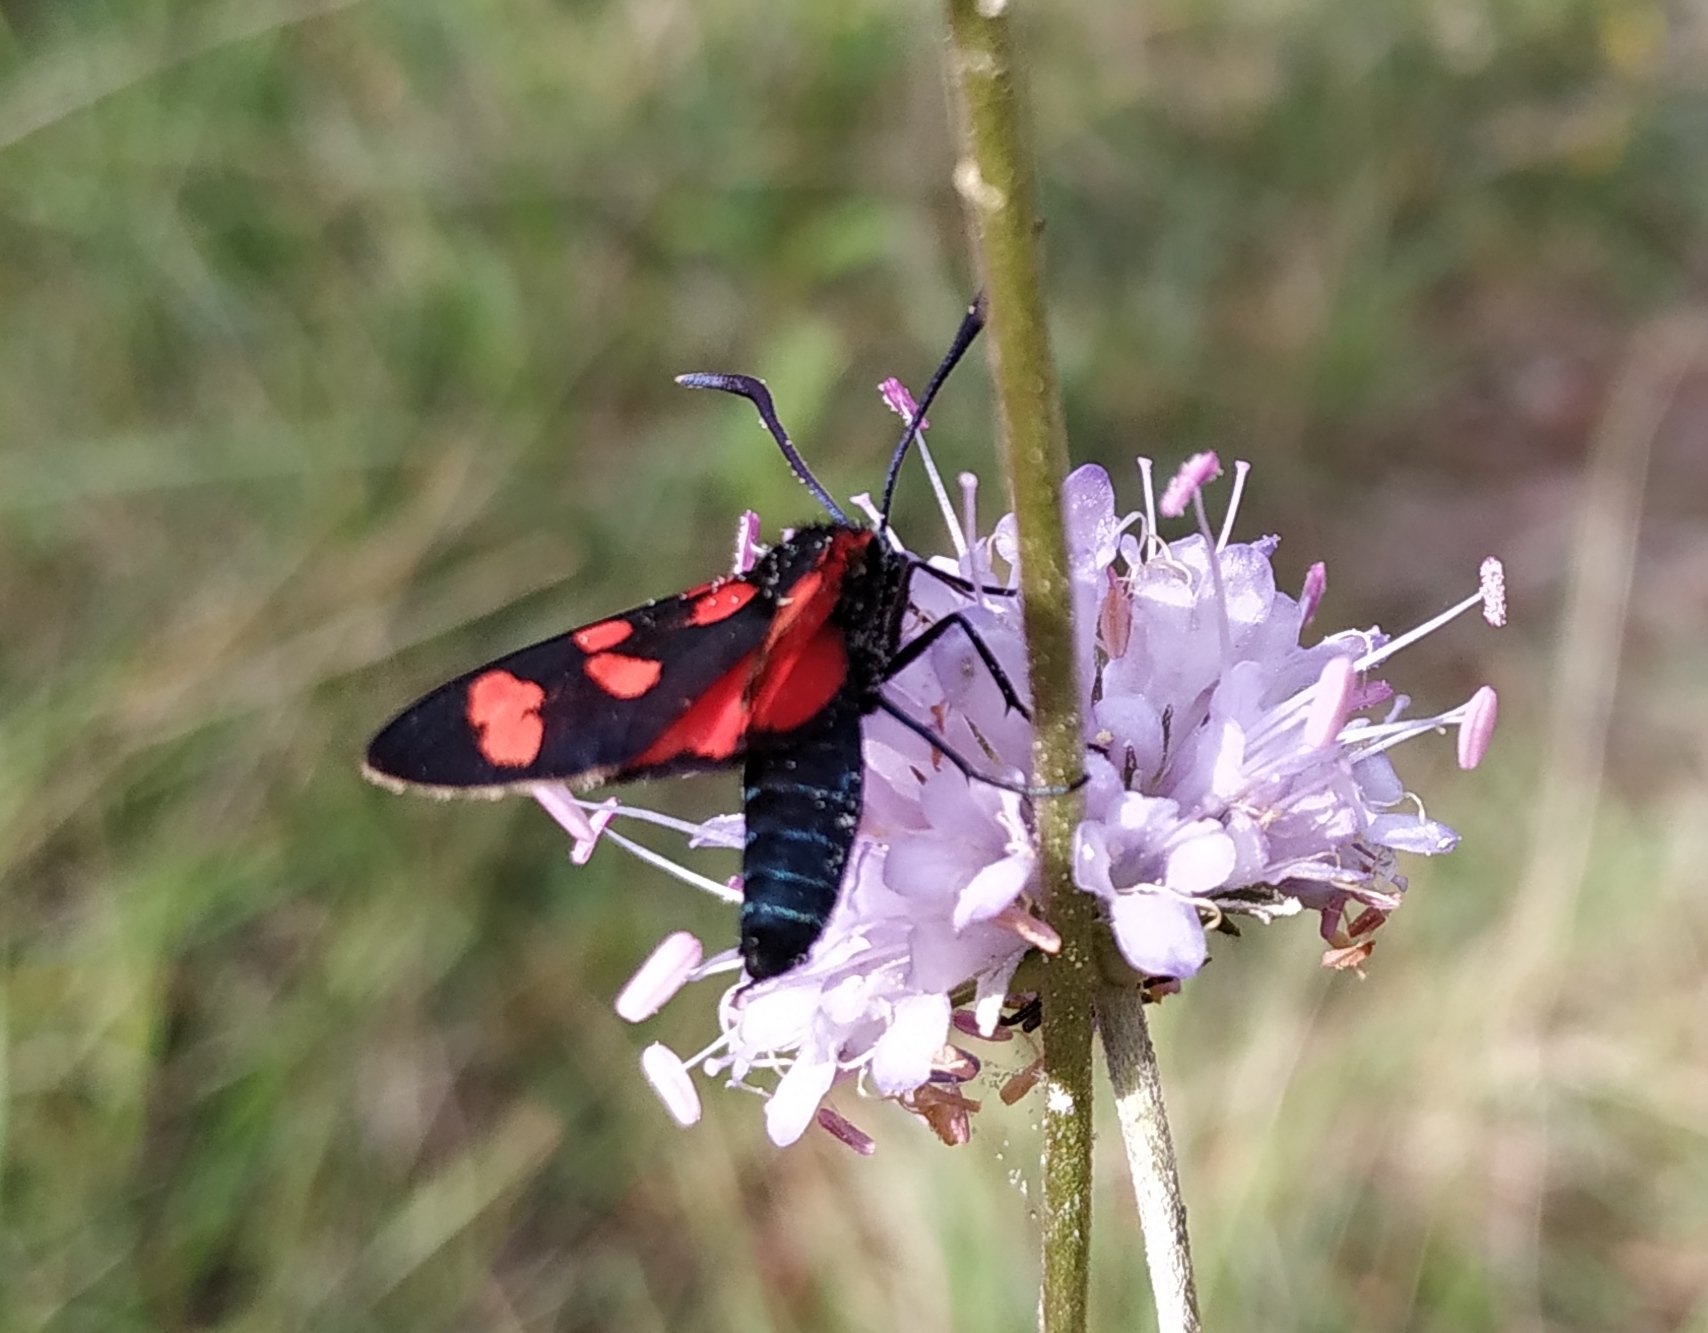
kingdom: Animalia
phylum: Arthropoda
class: Insecta
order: Lepidoptera
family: Zygaenidae
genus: Zygaena
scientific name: Zygaena filipendulae
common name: Six-spot burnet
